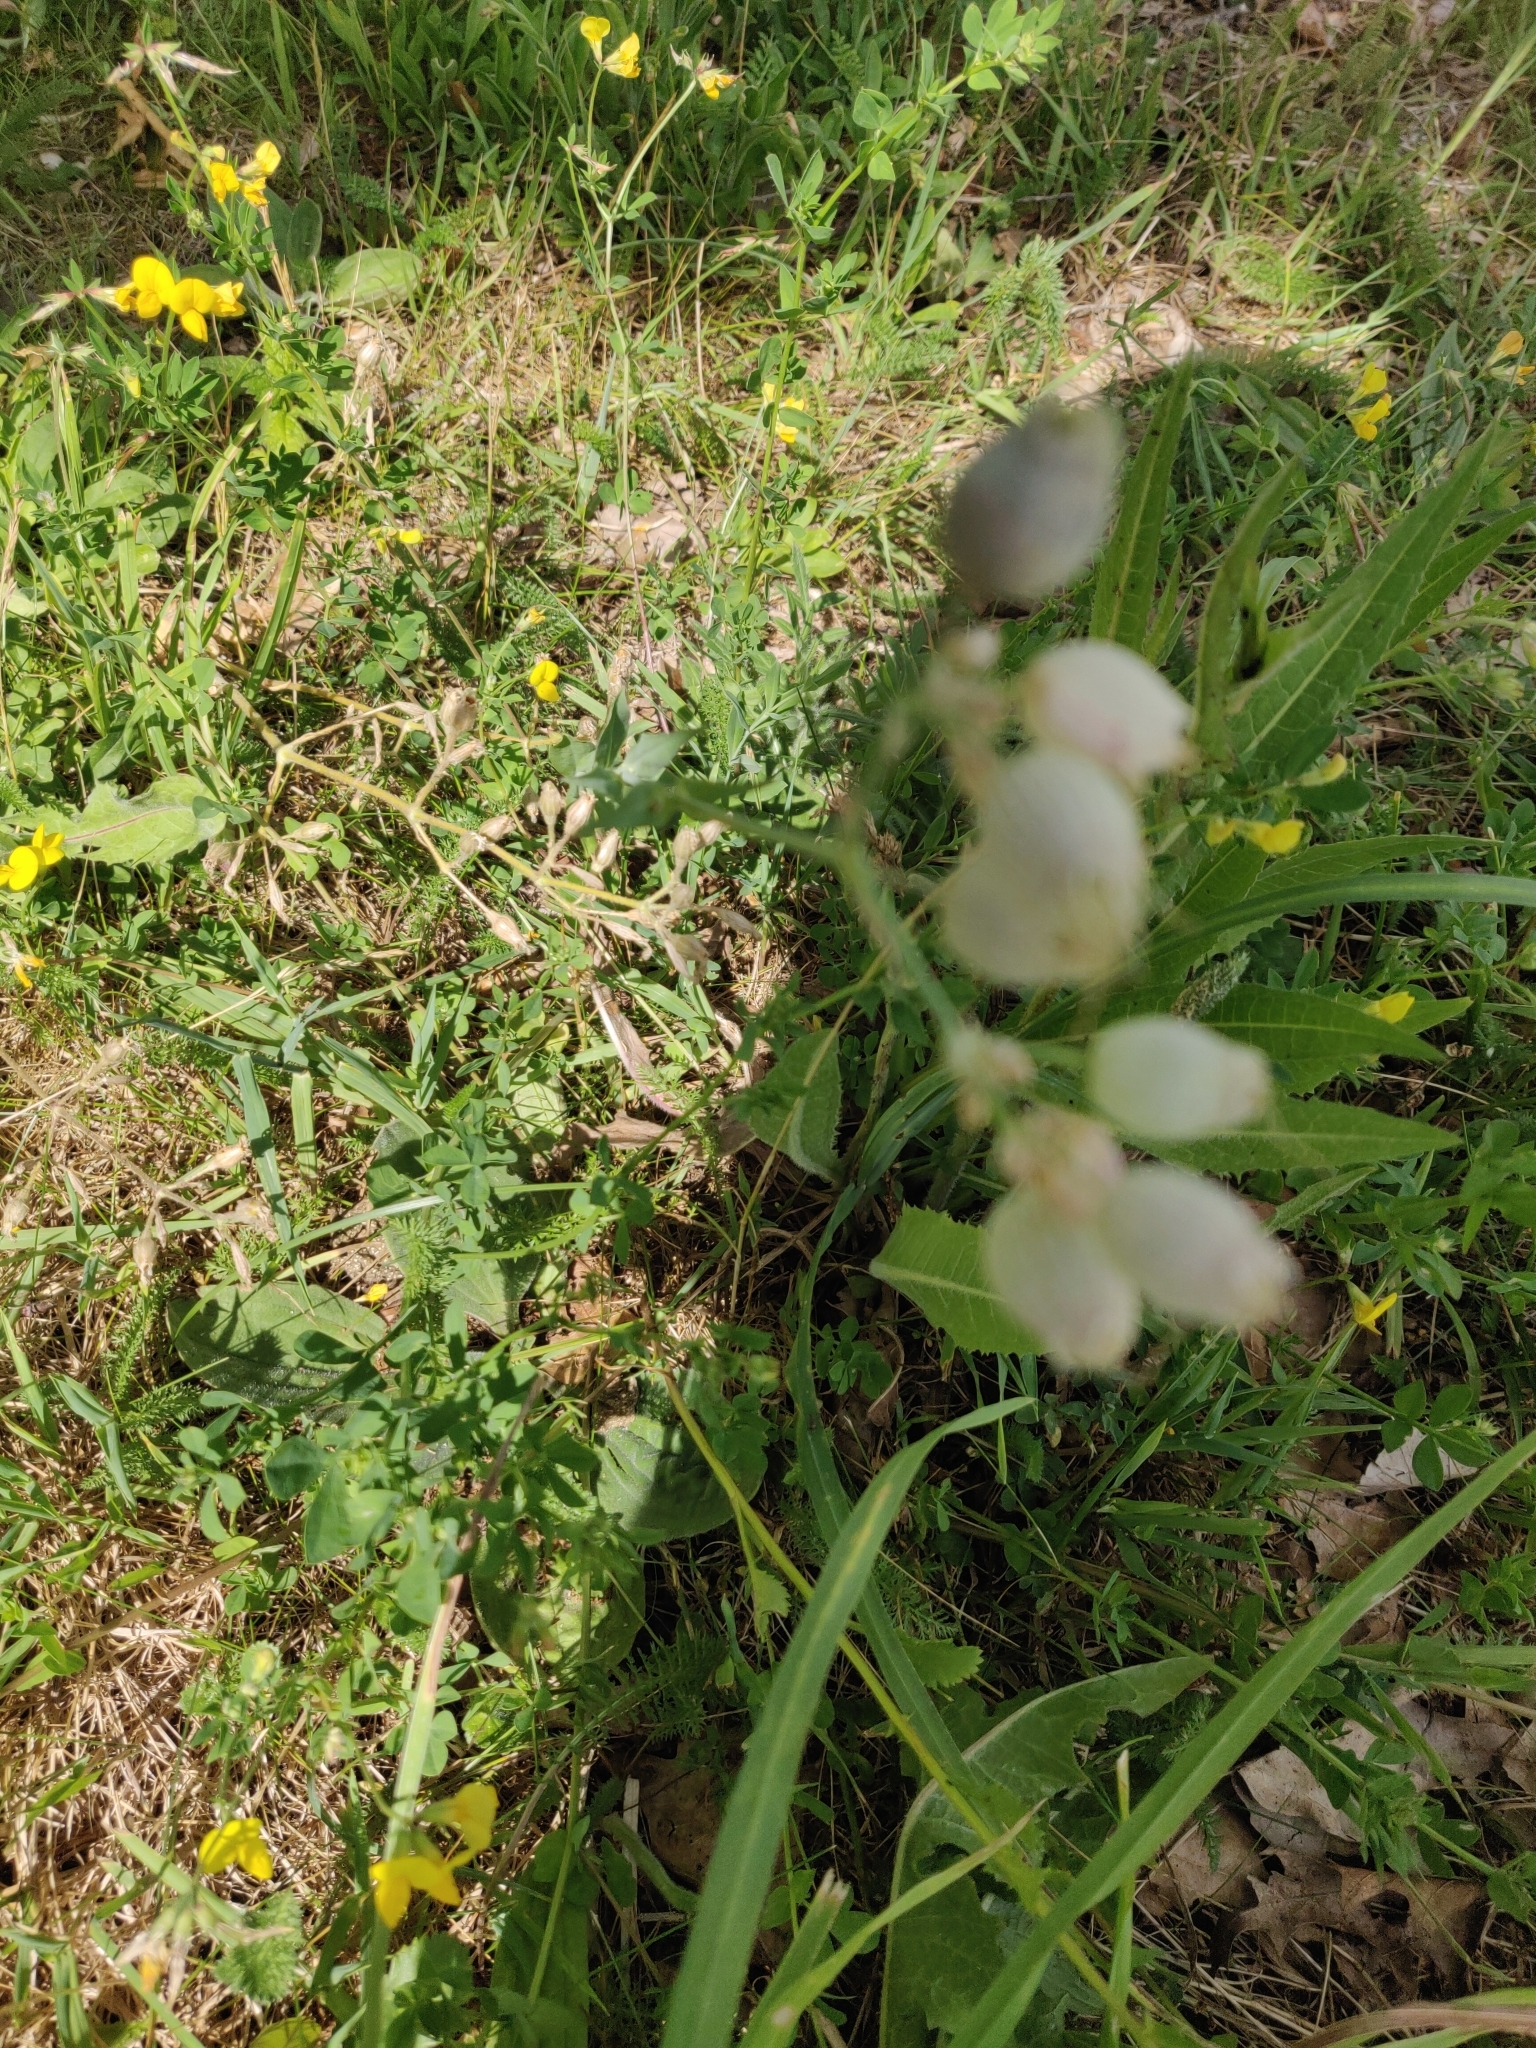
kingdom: Plantae
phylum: Tracheophyta
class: Magnoliopsida
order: Caryophyllales
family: Caryophyllaceae
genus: Silene
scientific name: Silene vulgaris
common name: Bladder campion
